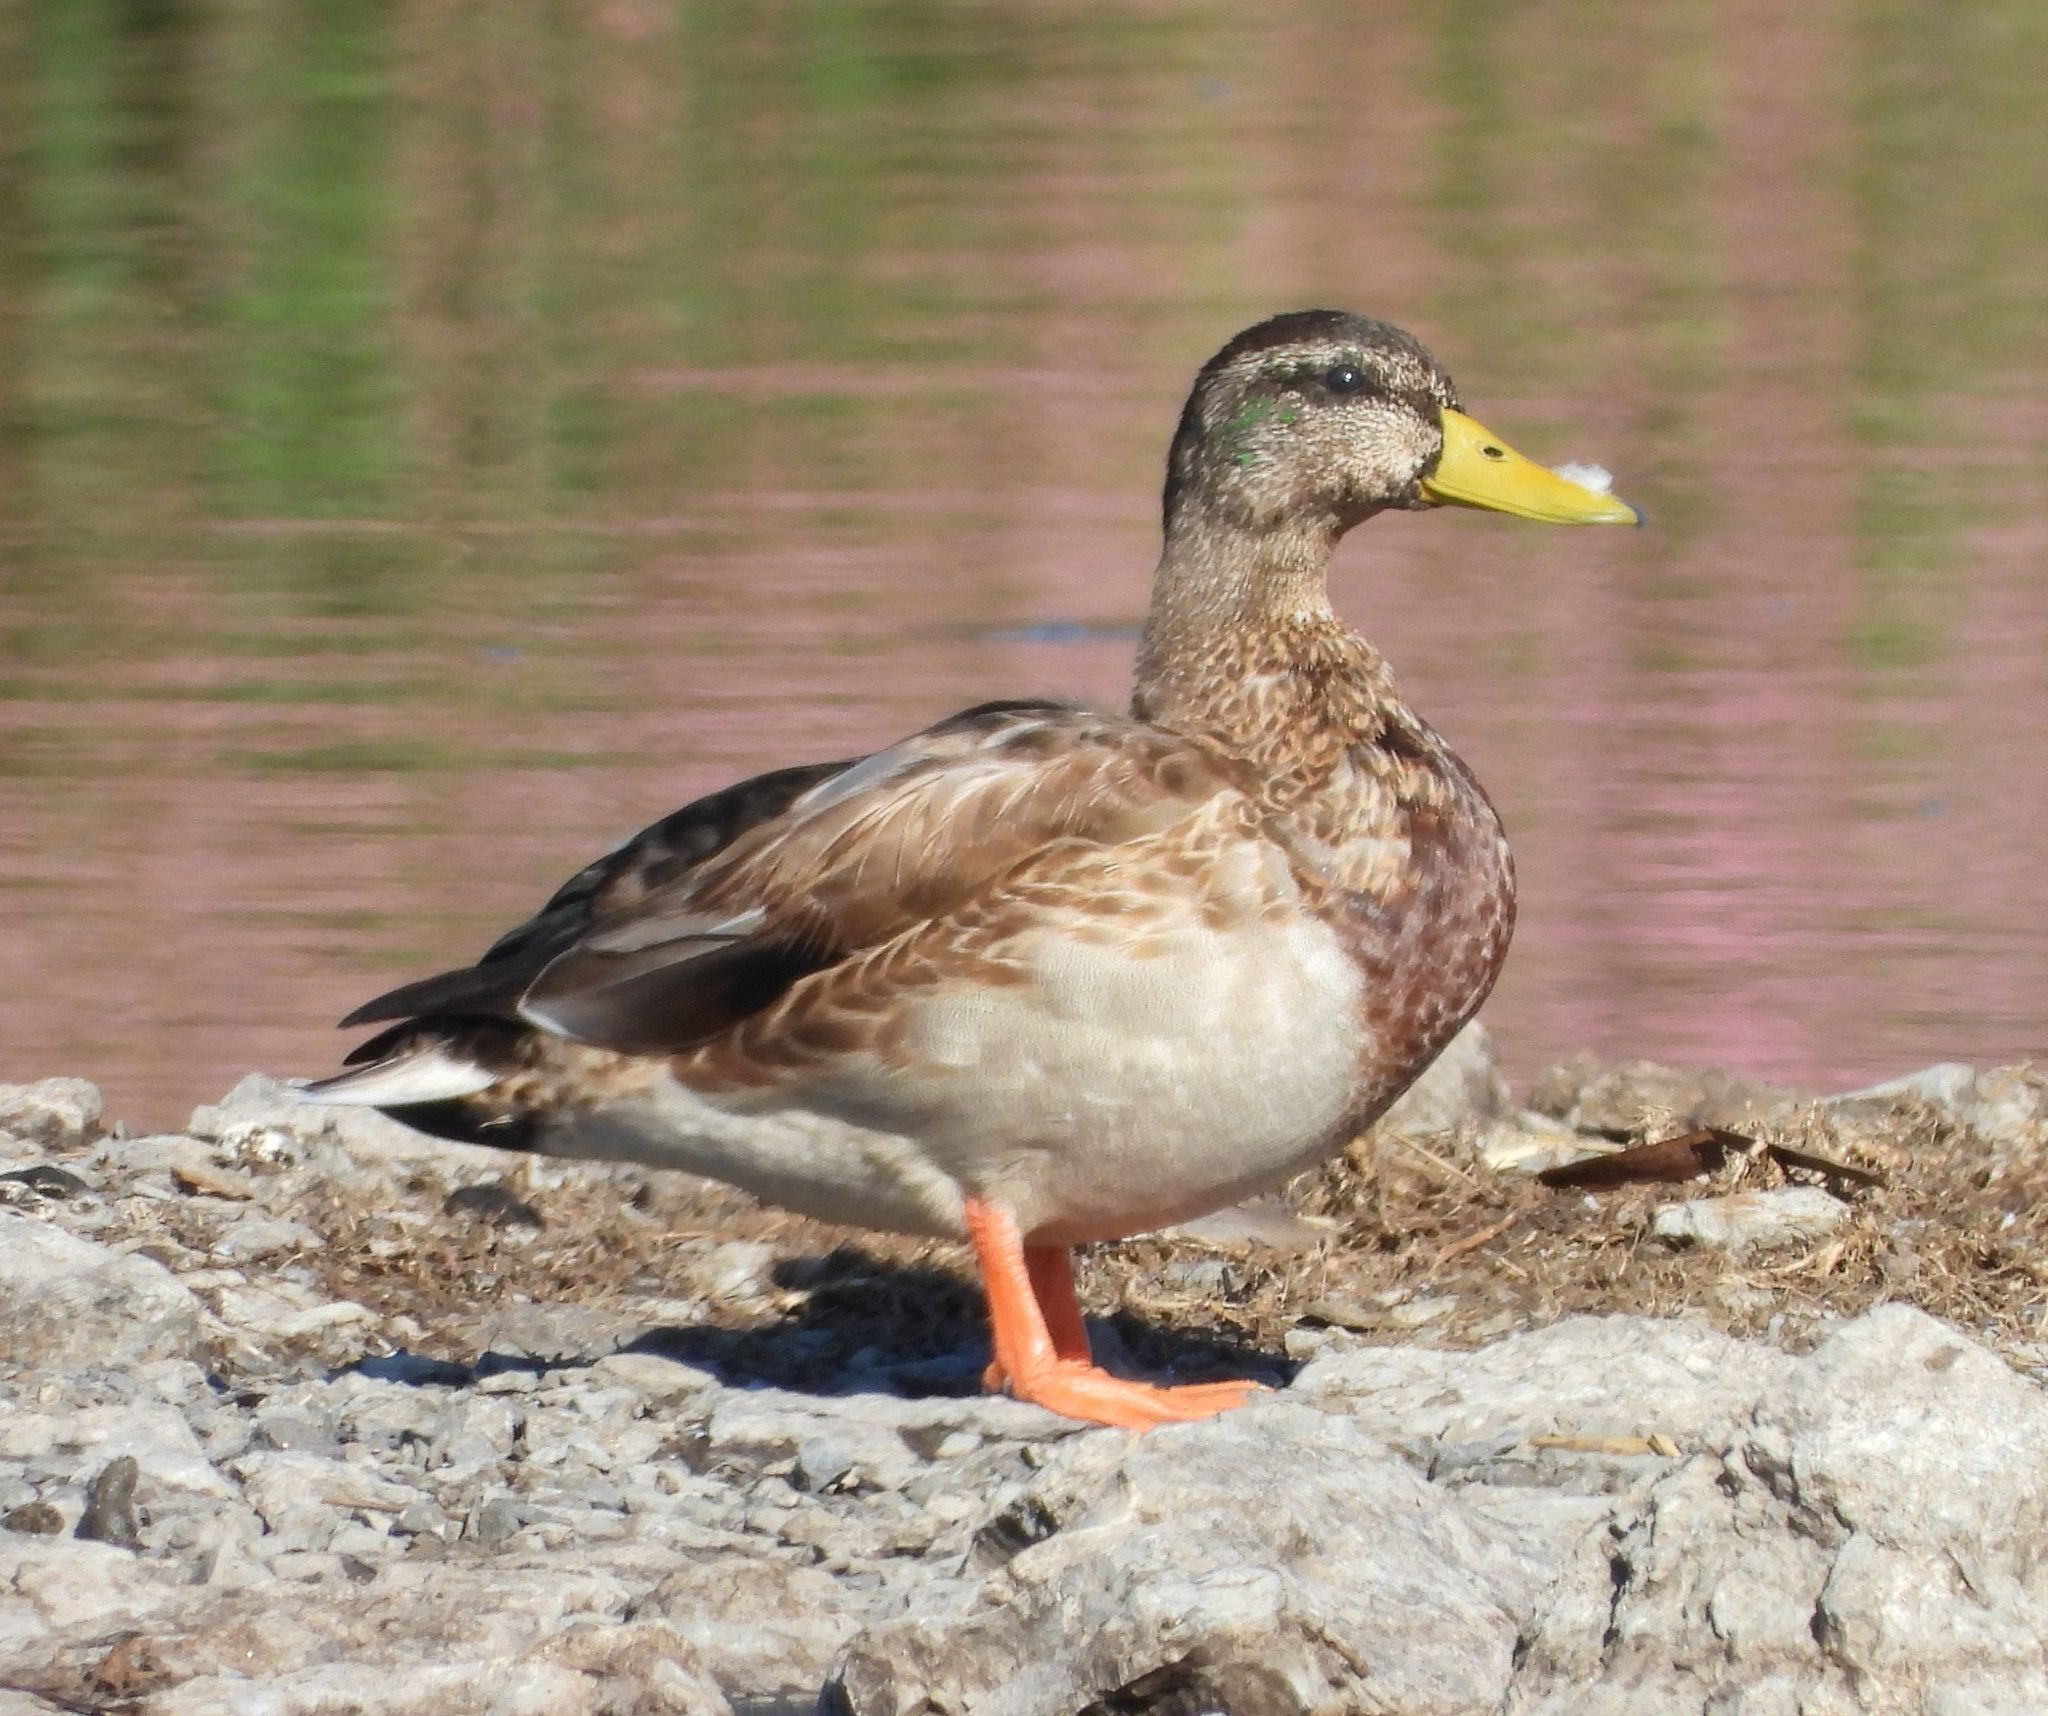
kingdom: Animalia
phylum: Chordata
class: Aves
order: Anseriformes
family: Anatidae
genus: Anas
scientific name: Anas platyrhynchos
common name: Mallard
